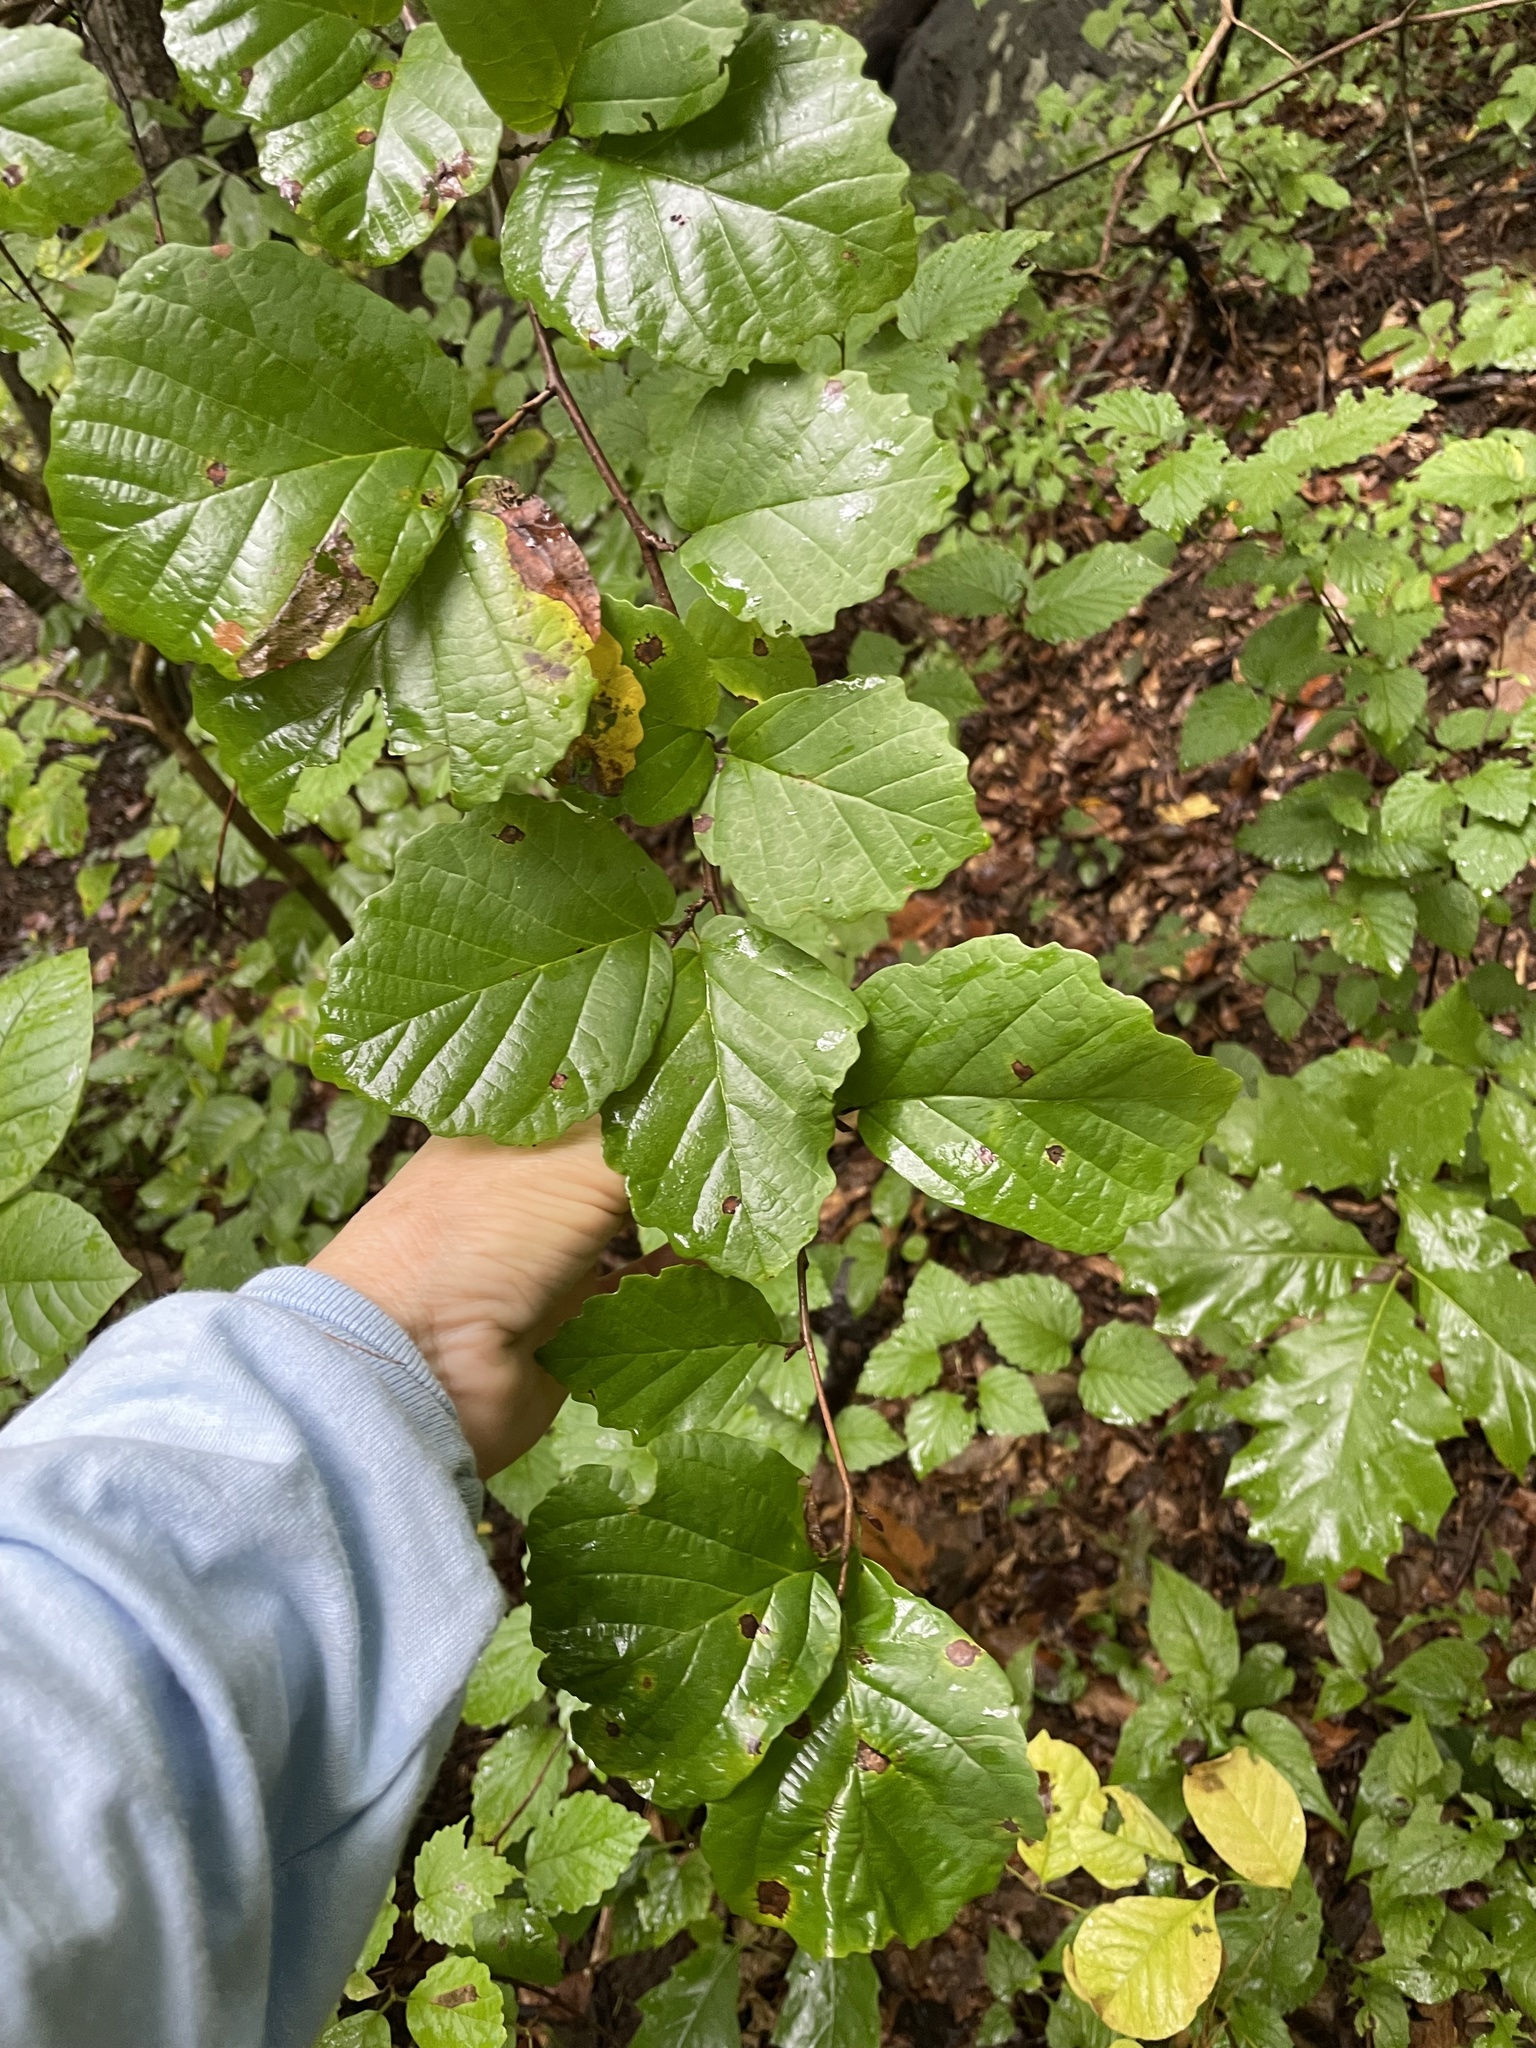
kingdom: Plantae
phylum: Tracheophyta
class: Magnoliopsida
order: Saxifragales
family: Hamamelidaceae
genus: Hamamelis
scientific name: Hamamelis virginiana
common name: Witch-hazel
